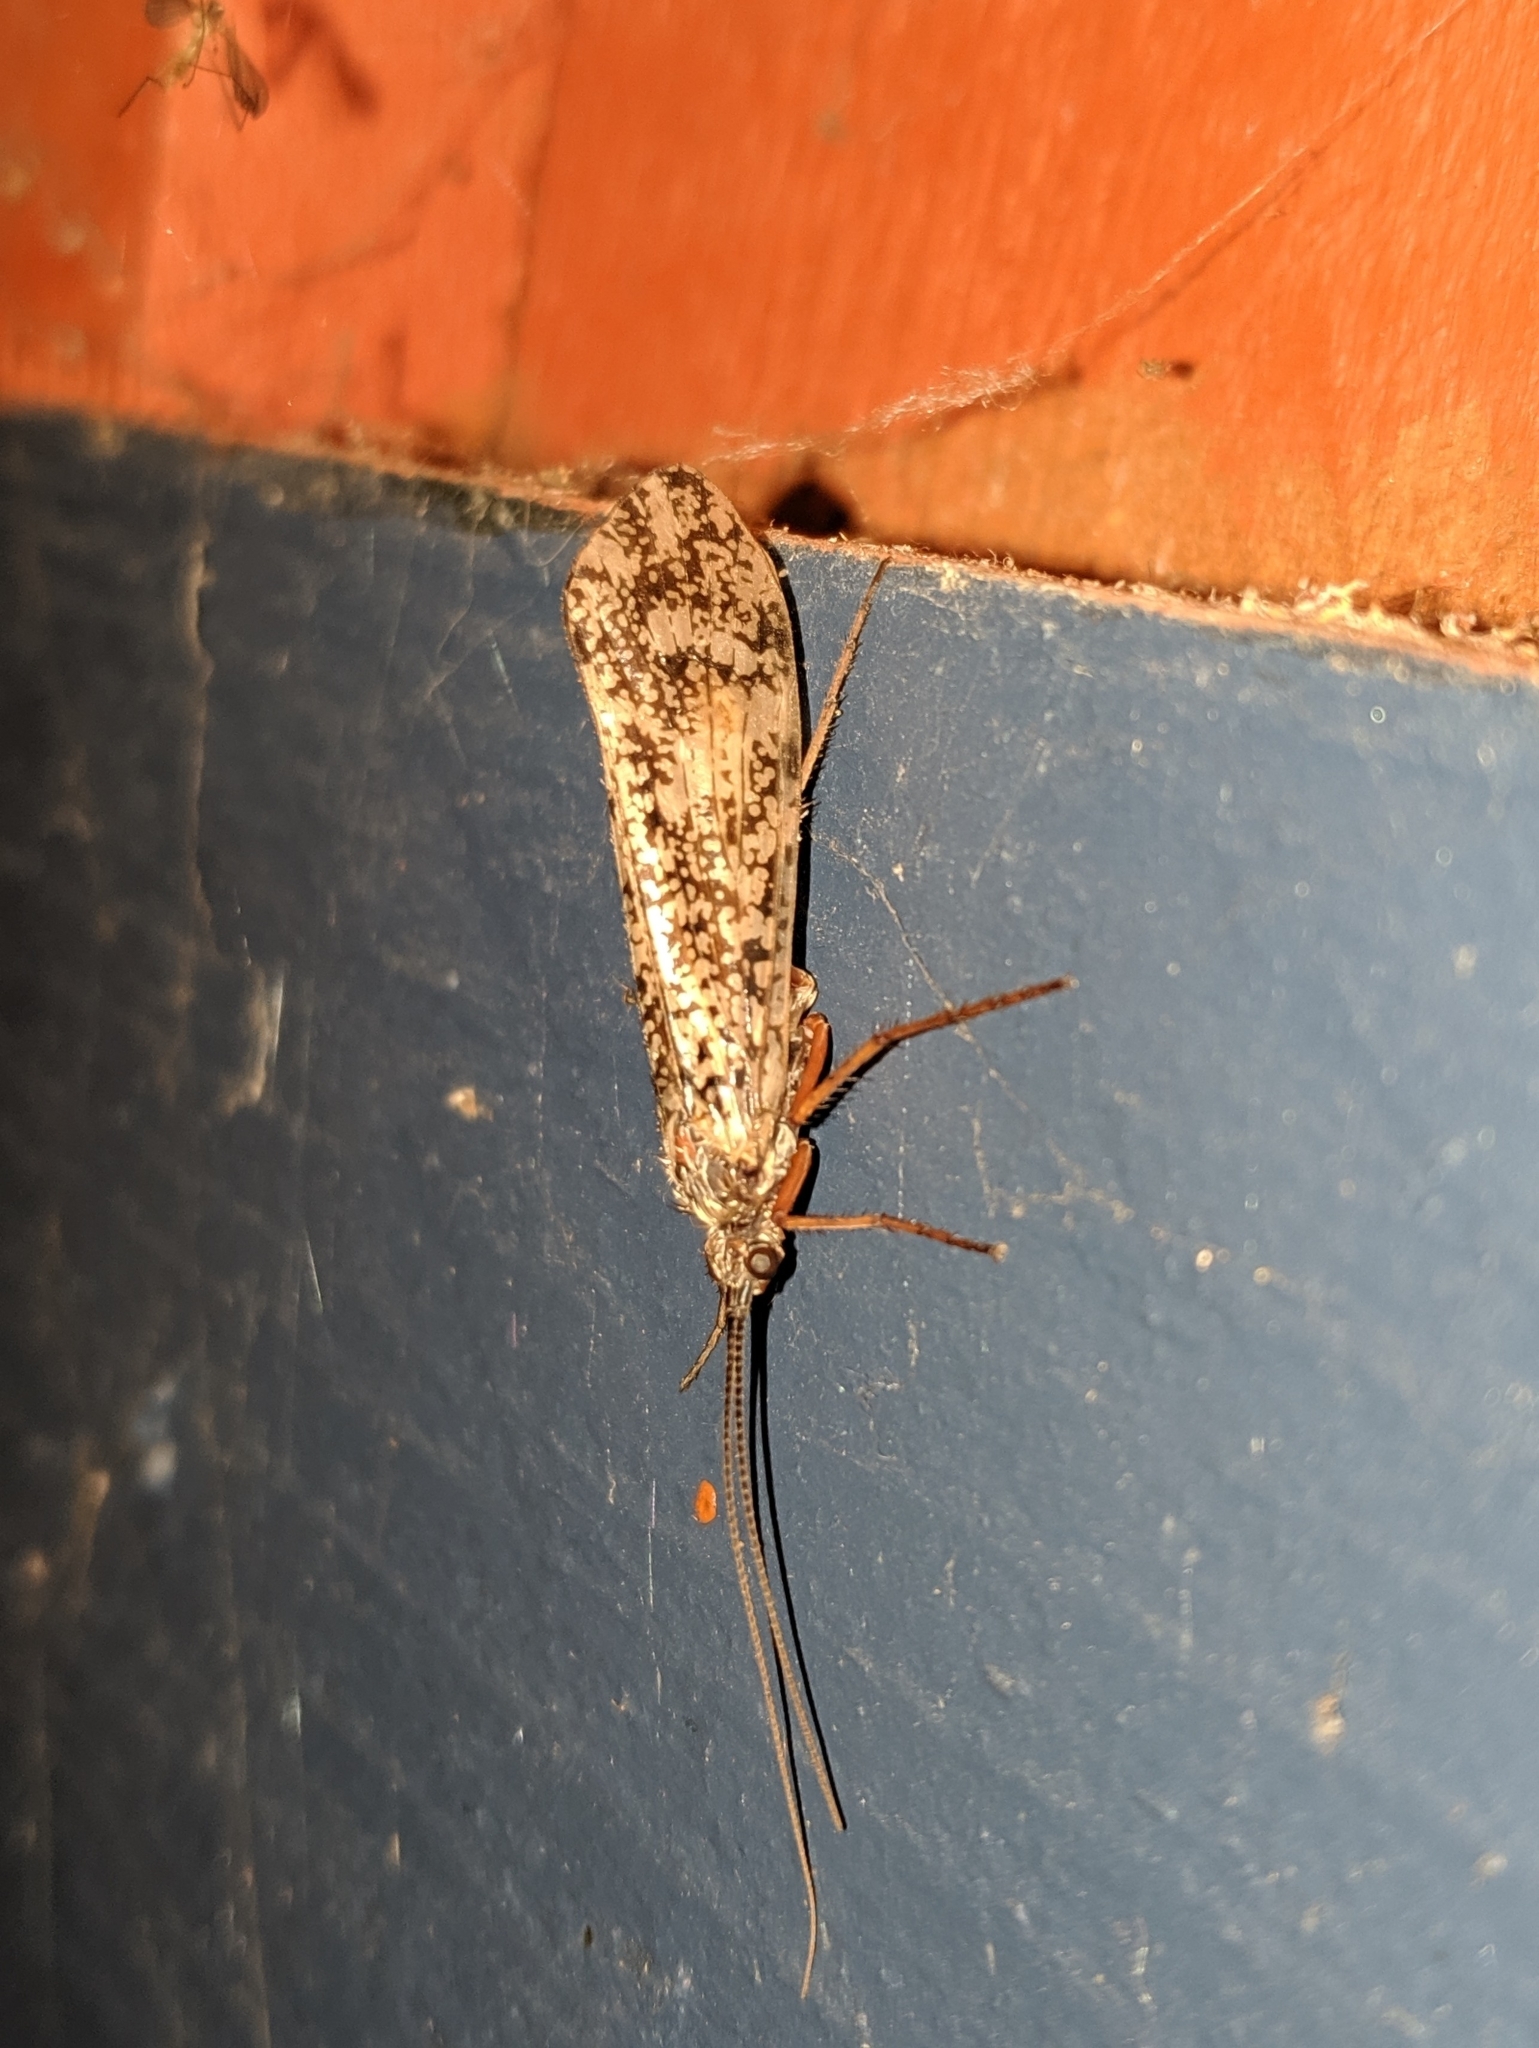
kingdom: Animalia
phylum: Arthropoda
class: Insecta
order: Trichoptera
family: Limnephilidae
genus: Clistoronia
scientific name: Clistoronia magnifica
